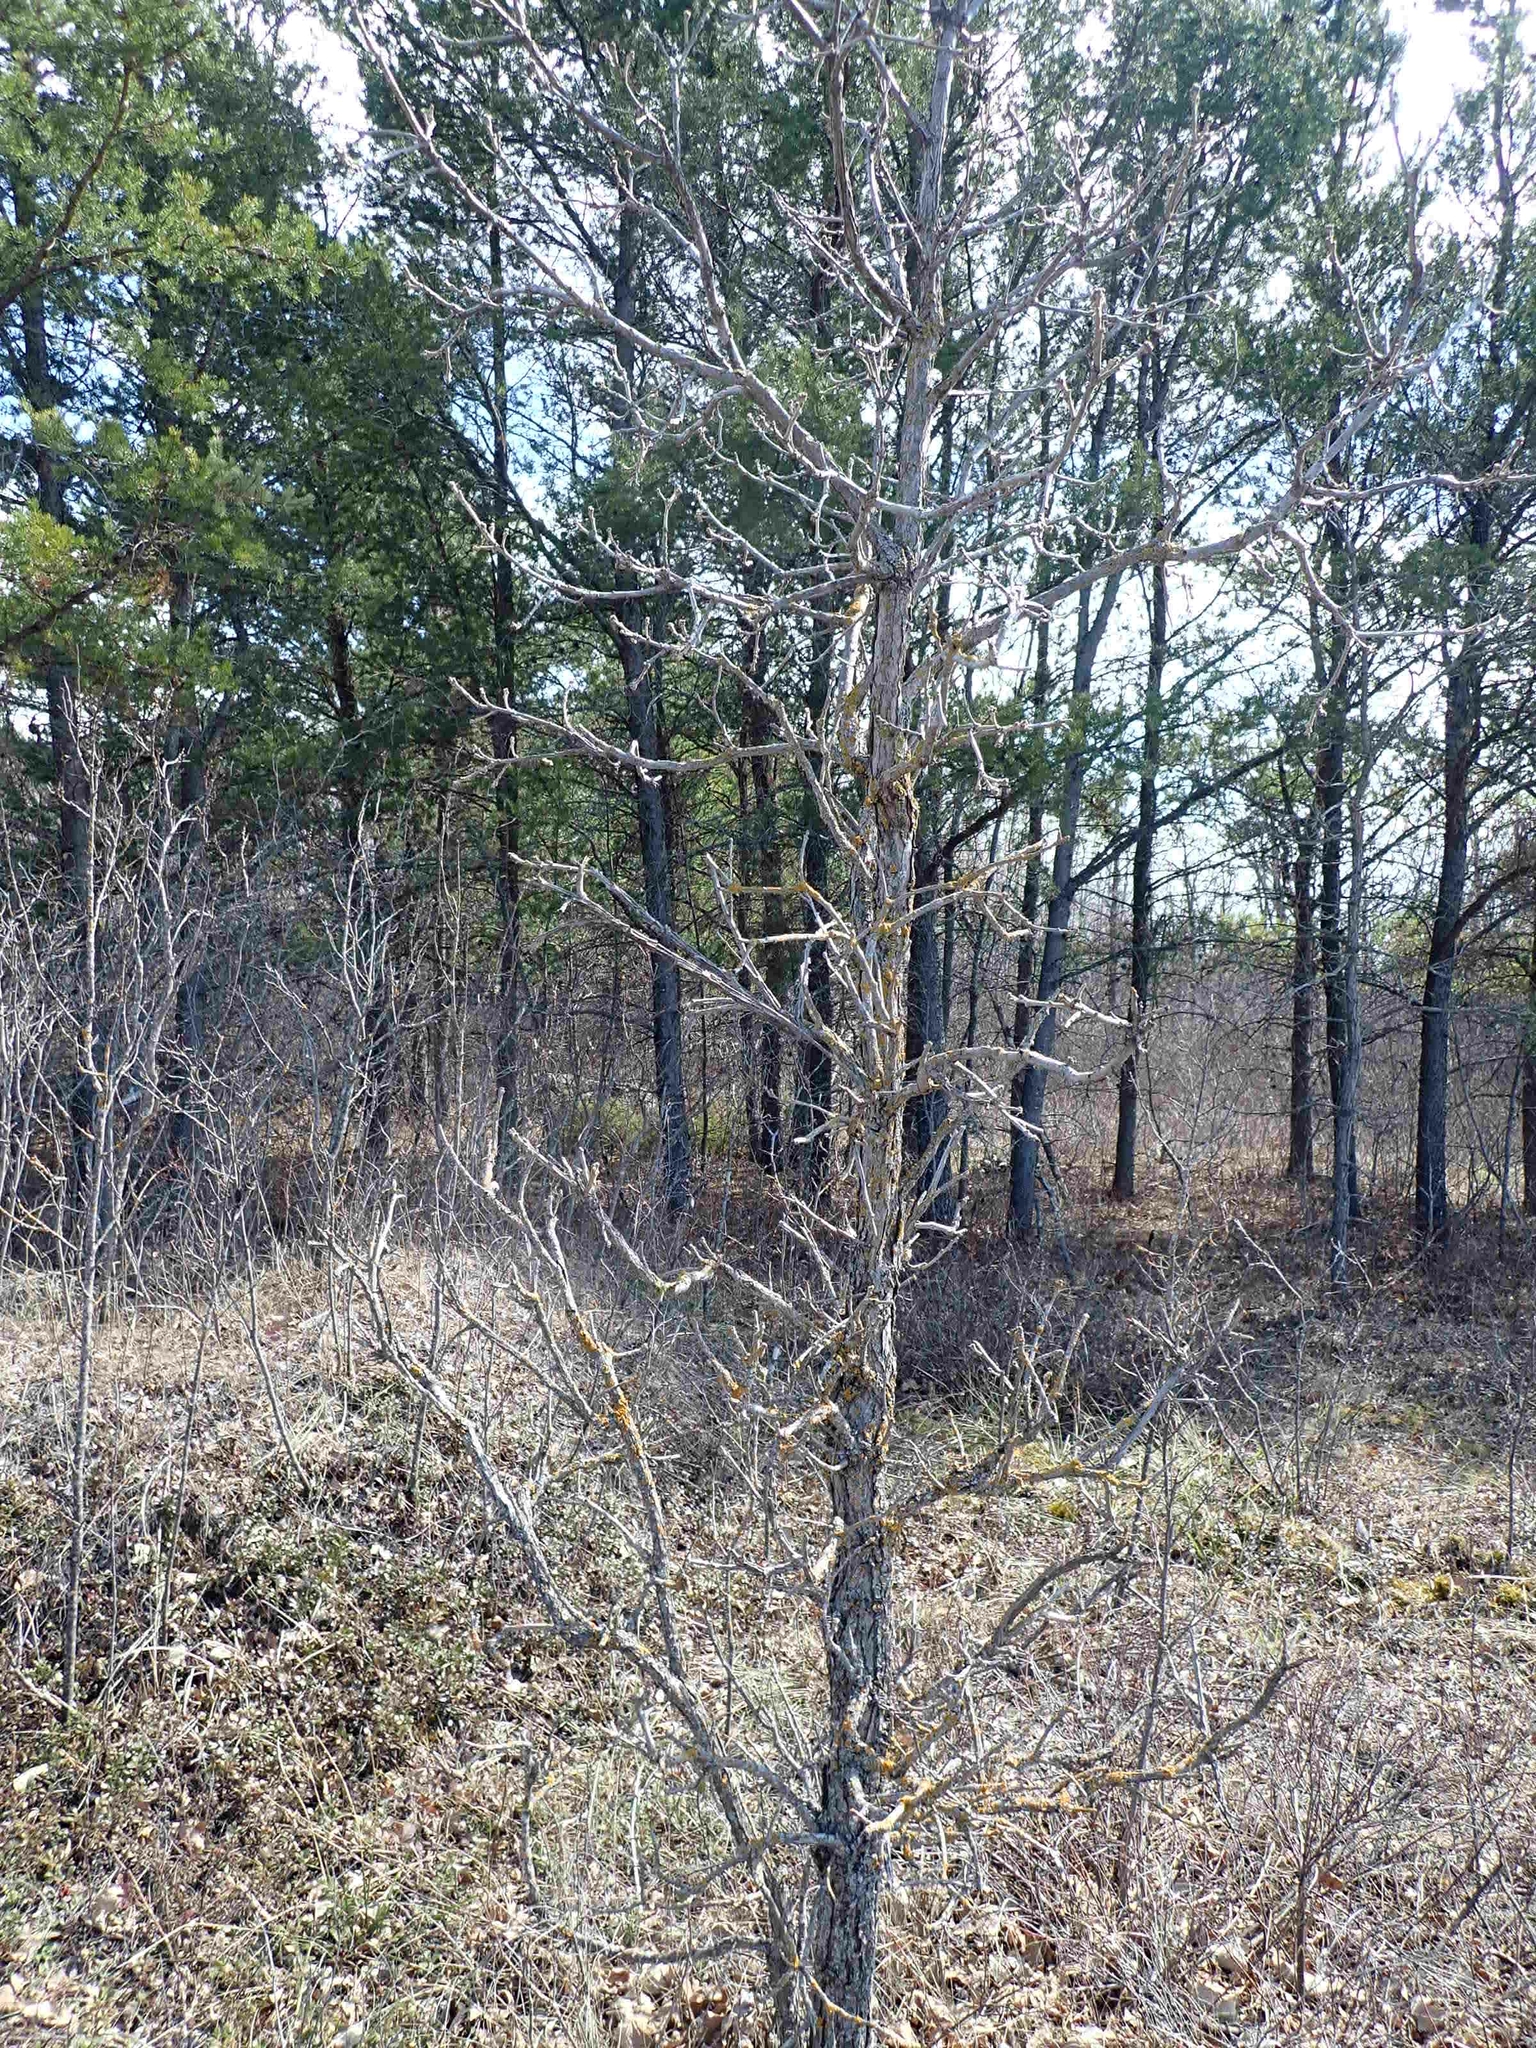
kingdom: Plantae
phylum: Tracheophyta
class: Magnoliopsida
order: Fagales
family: Fagaceae
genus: Quercus
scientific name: Quercus macrocarpa
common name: Bur oak
